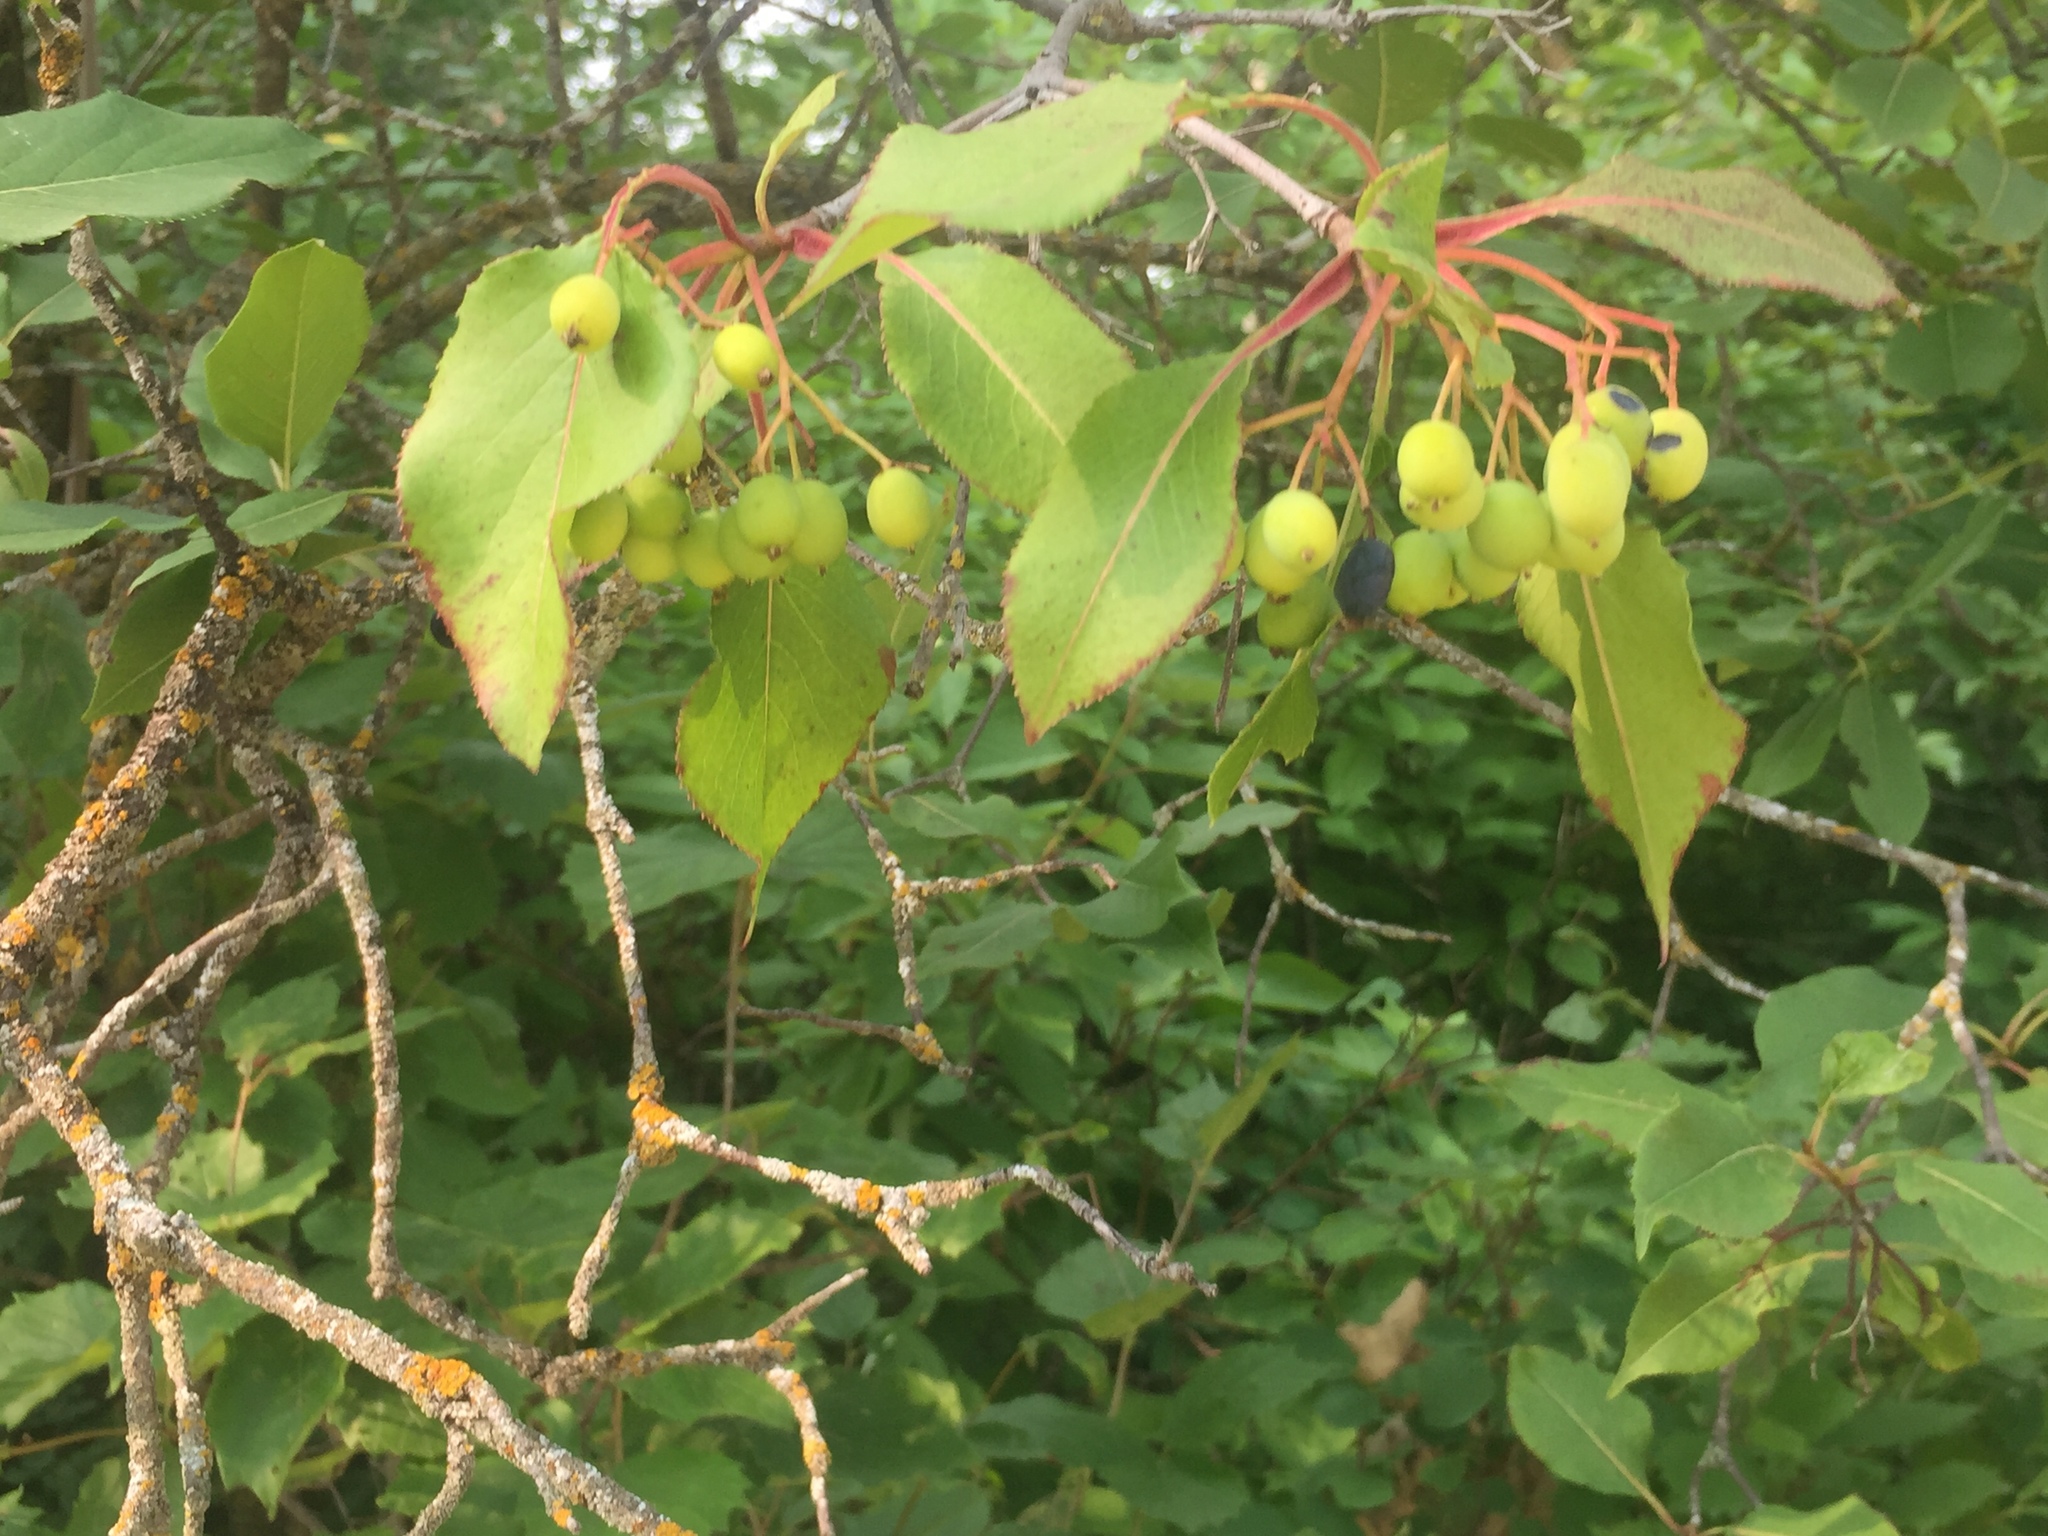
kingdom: Plantae
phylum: Tracheophyta
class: Magnoliopsida
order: Dipsacales
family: Viburnaceae
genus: Viburnum
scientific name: Viburnum lentago
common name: Black haw
